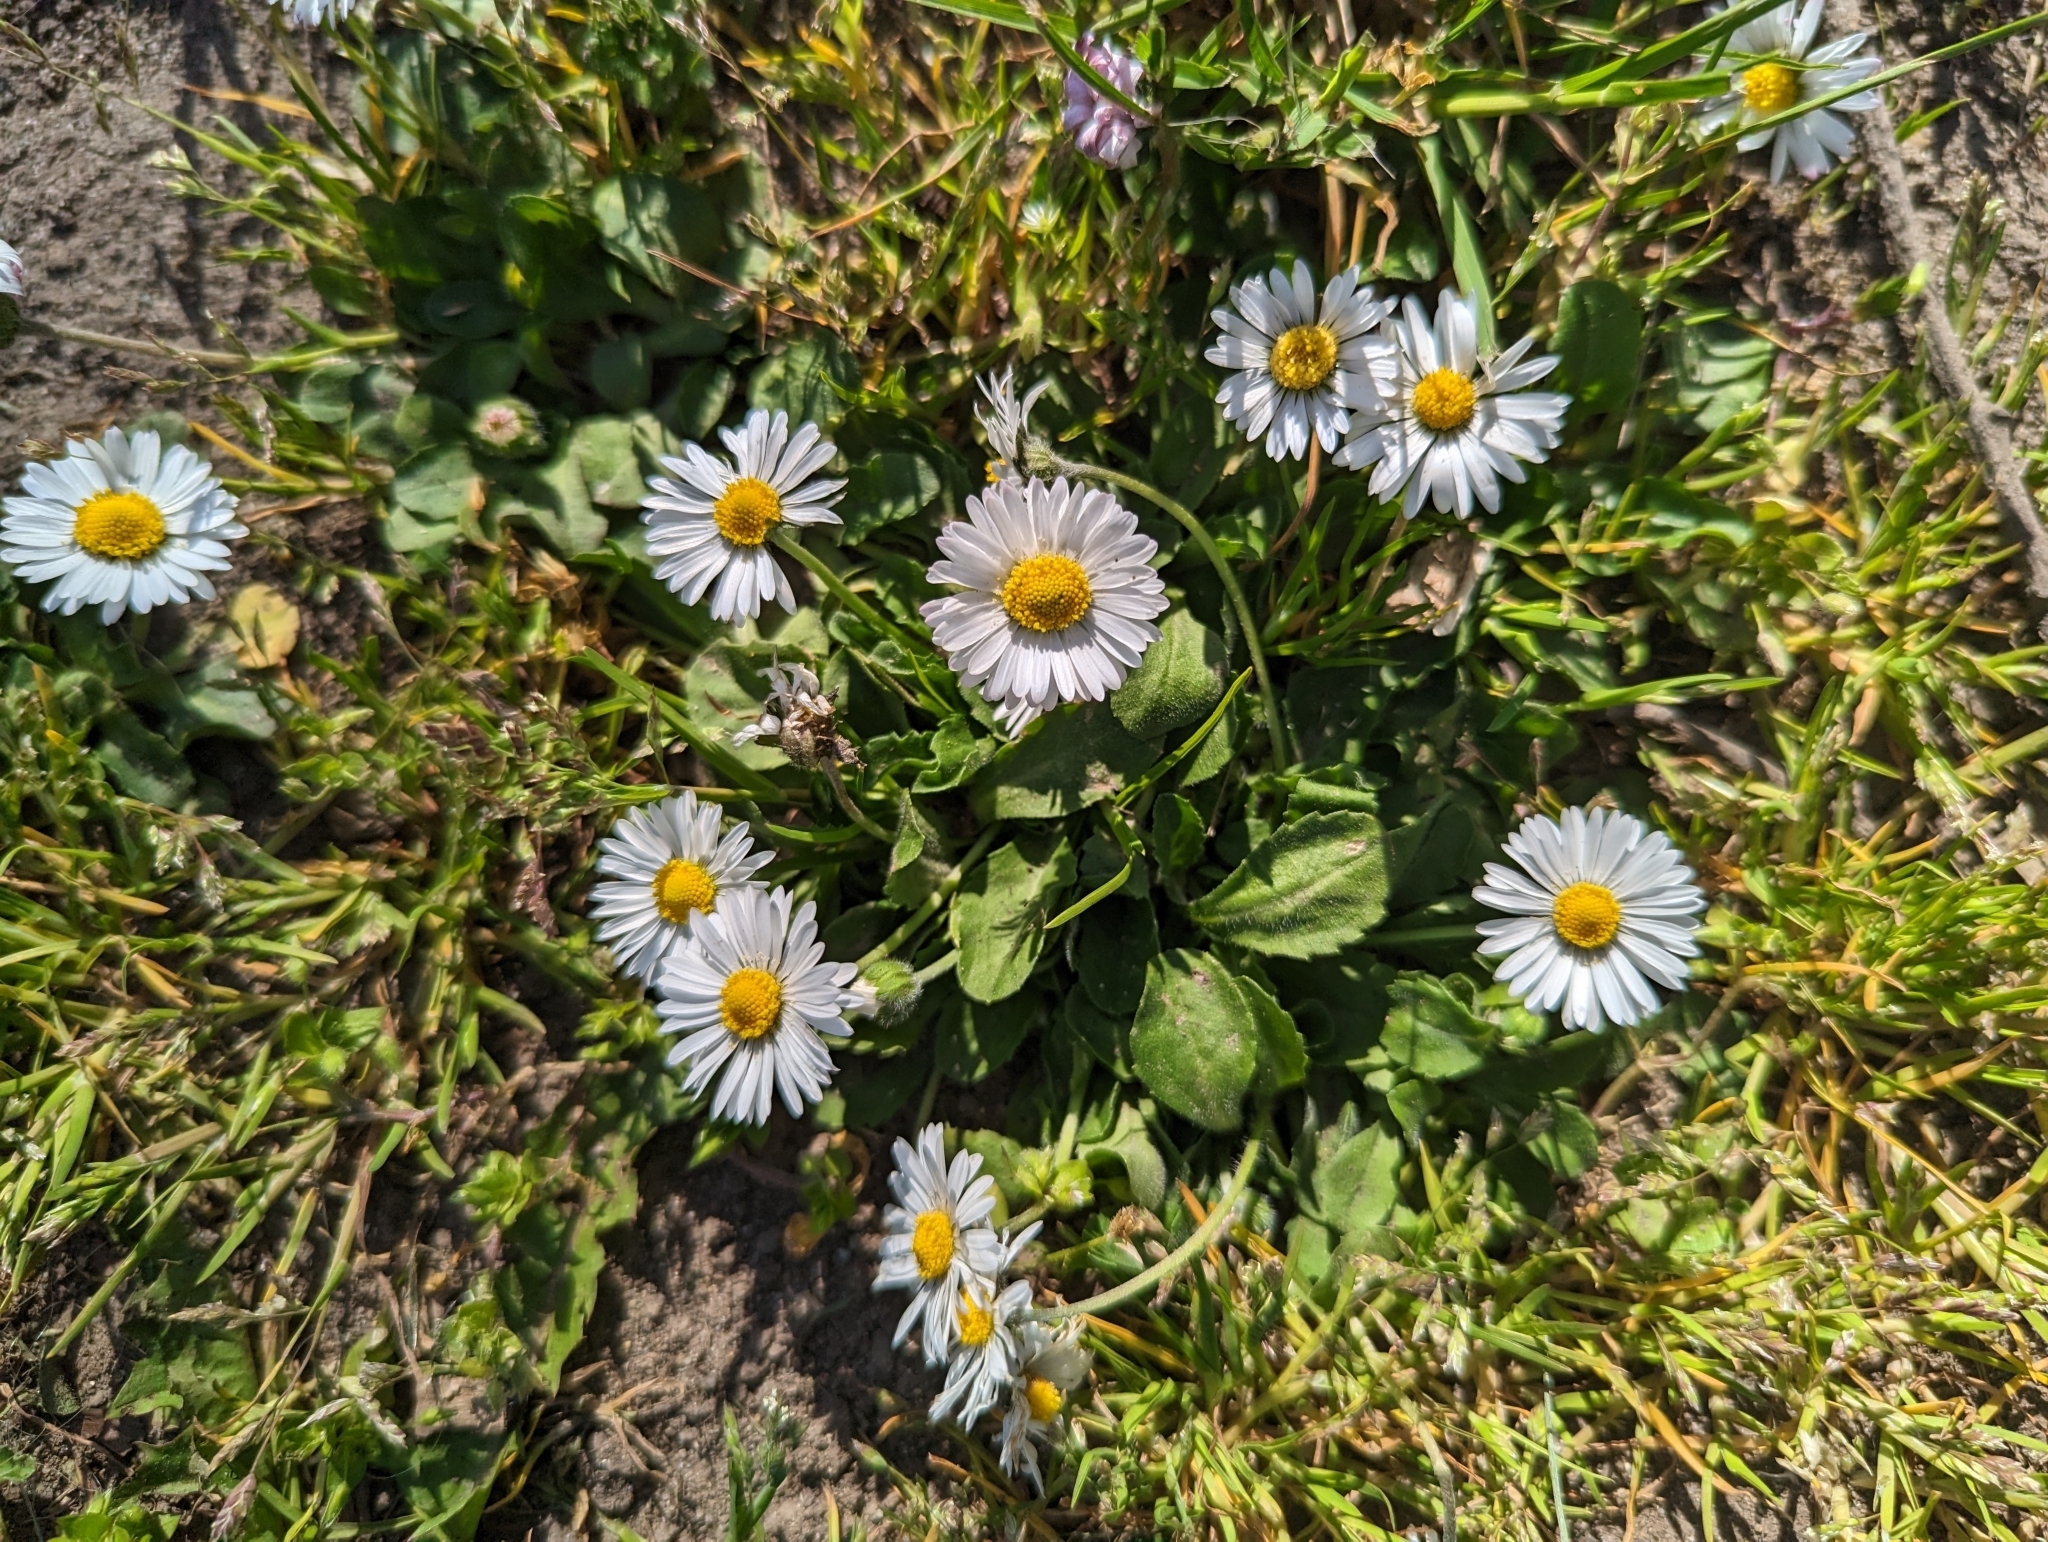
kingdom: Plantae
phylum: Tracheophyta
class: Magnoliopsida
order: Asterales
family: Asteraceae
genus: Bellis
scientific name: Bellis perennis
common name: Lawndaisy
